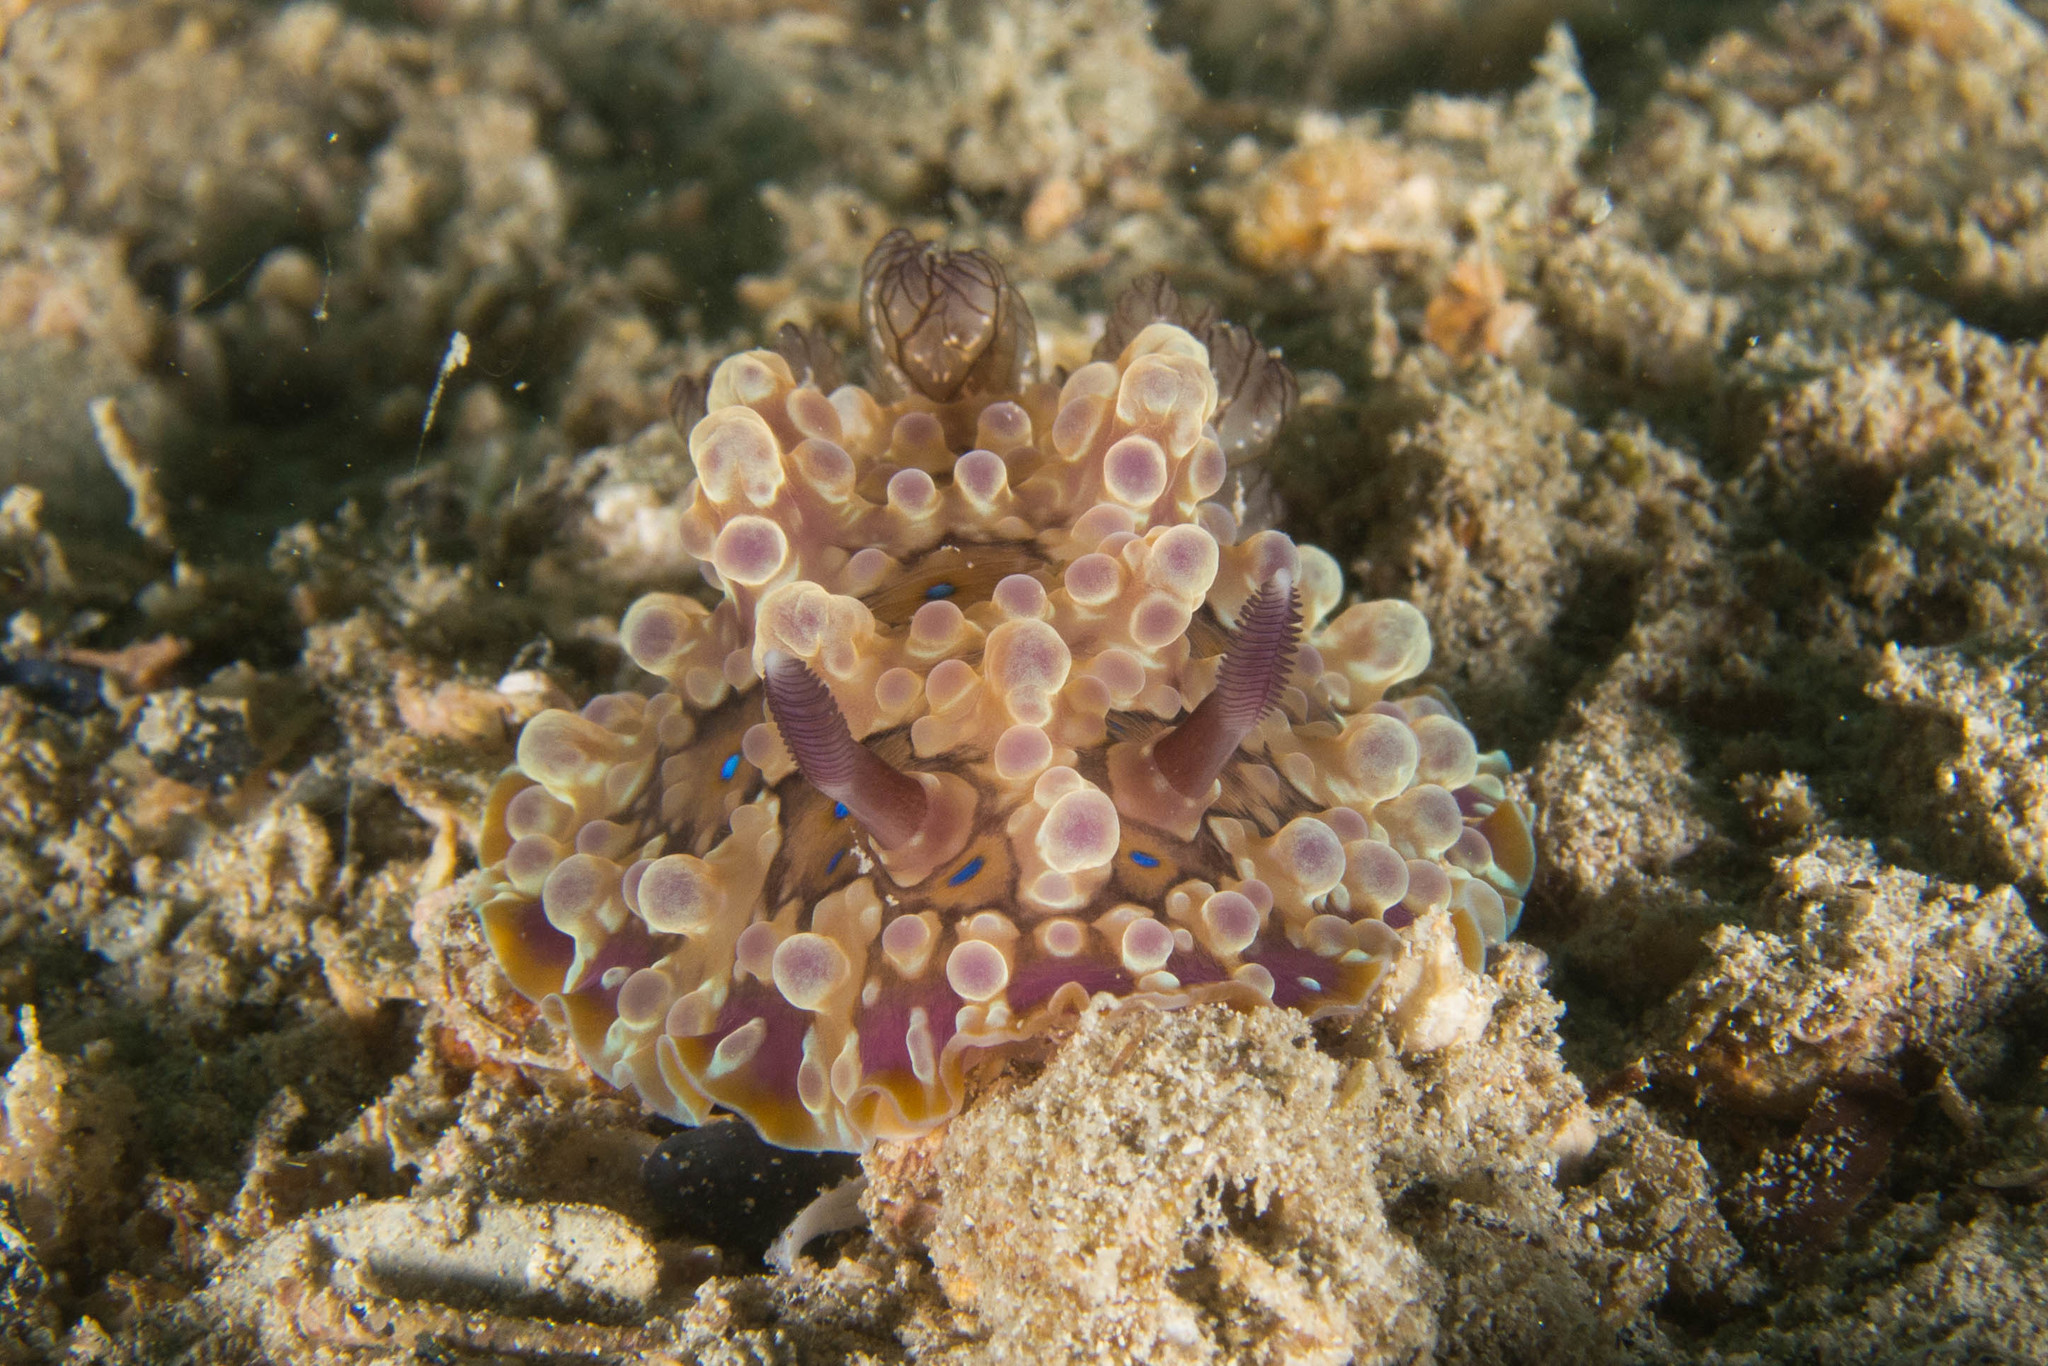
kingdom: Animalia
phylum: Mollusca
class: Gastropoda
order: Nudibranchia
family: Dendrodorididae
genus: Dendrodoris
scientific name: Dendrodoris krusensternii
